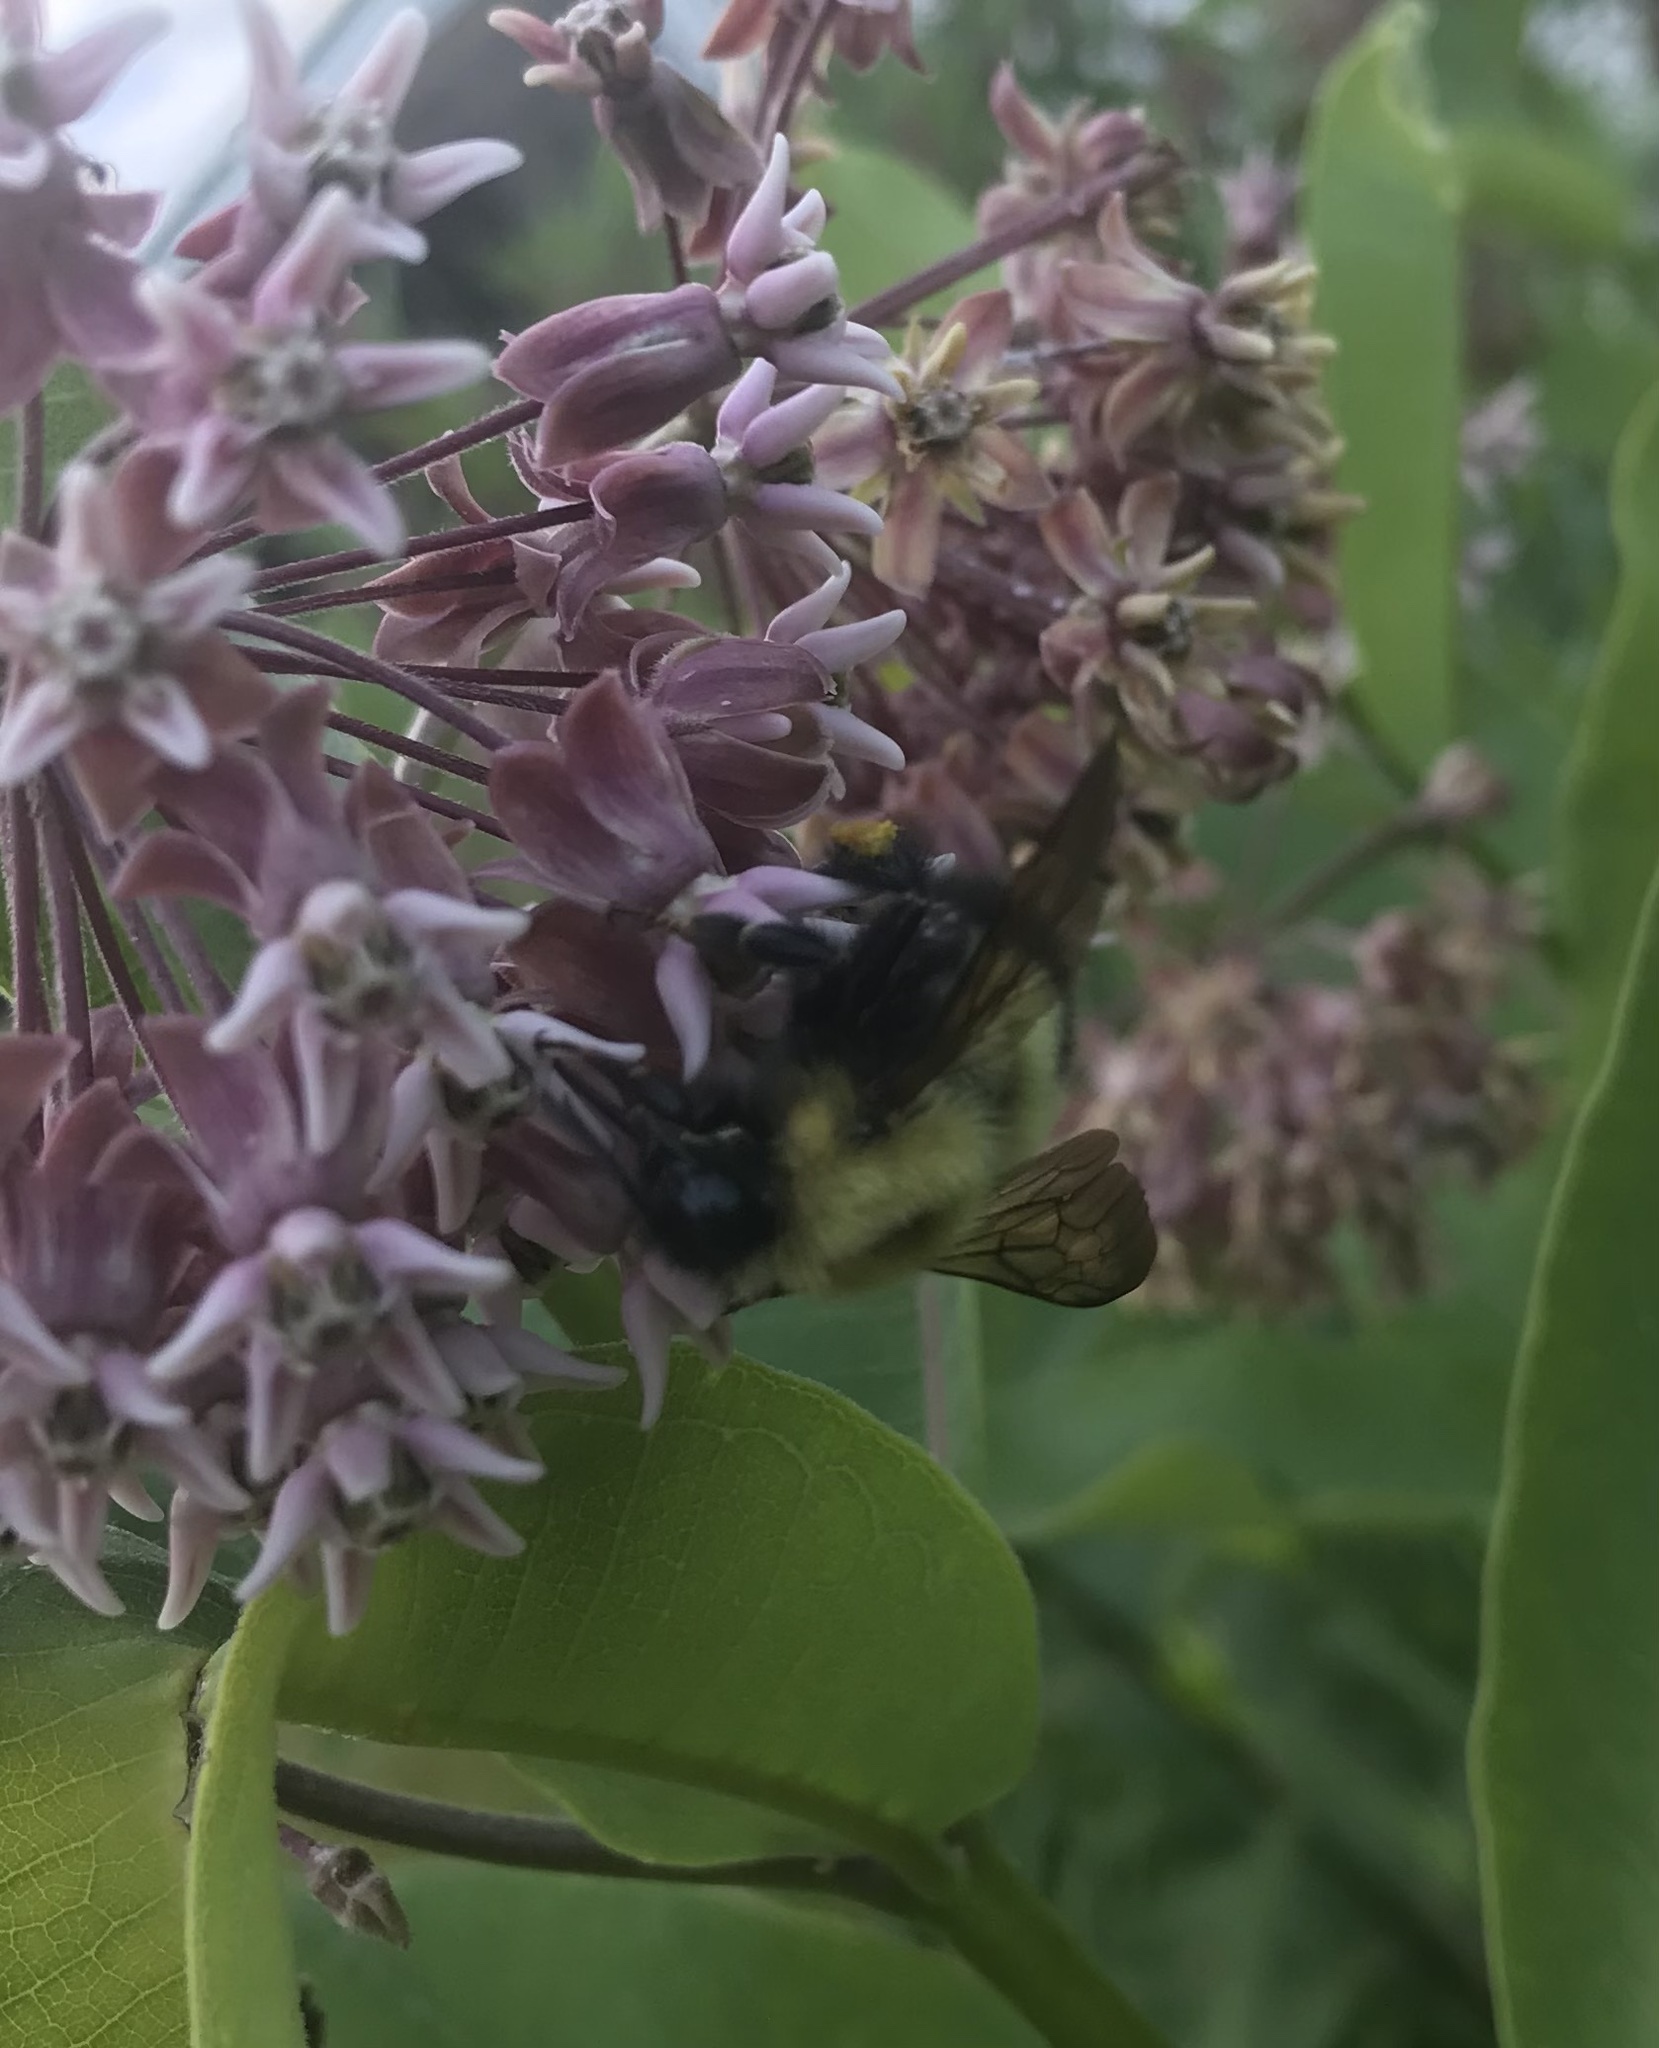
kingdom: Animalia
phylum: Arthropoda
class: Insecta
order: Hymenoptera
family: Apidae
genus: Bombus
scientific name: Bombus perplexus
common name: Confusing bumble bee
